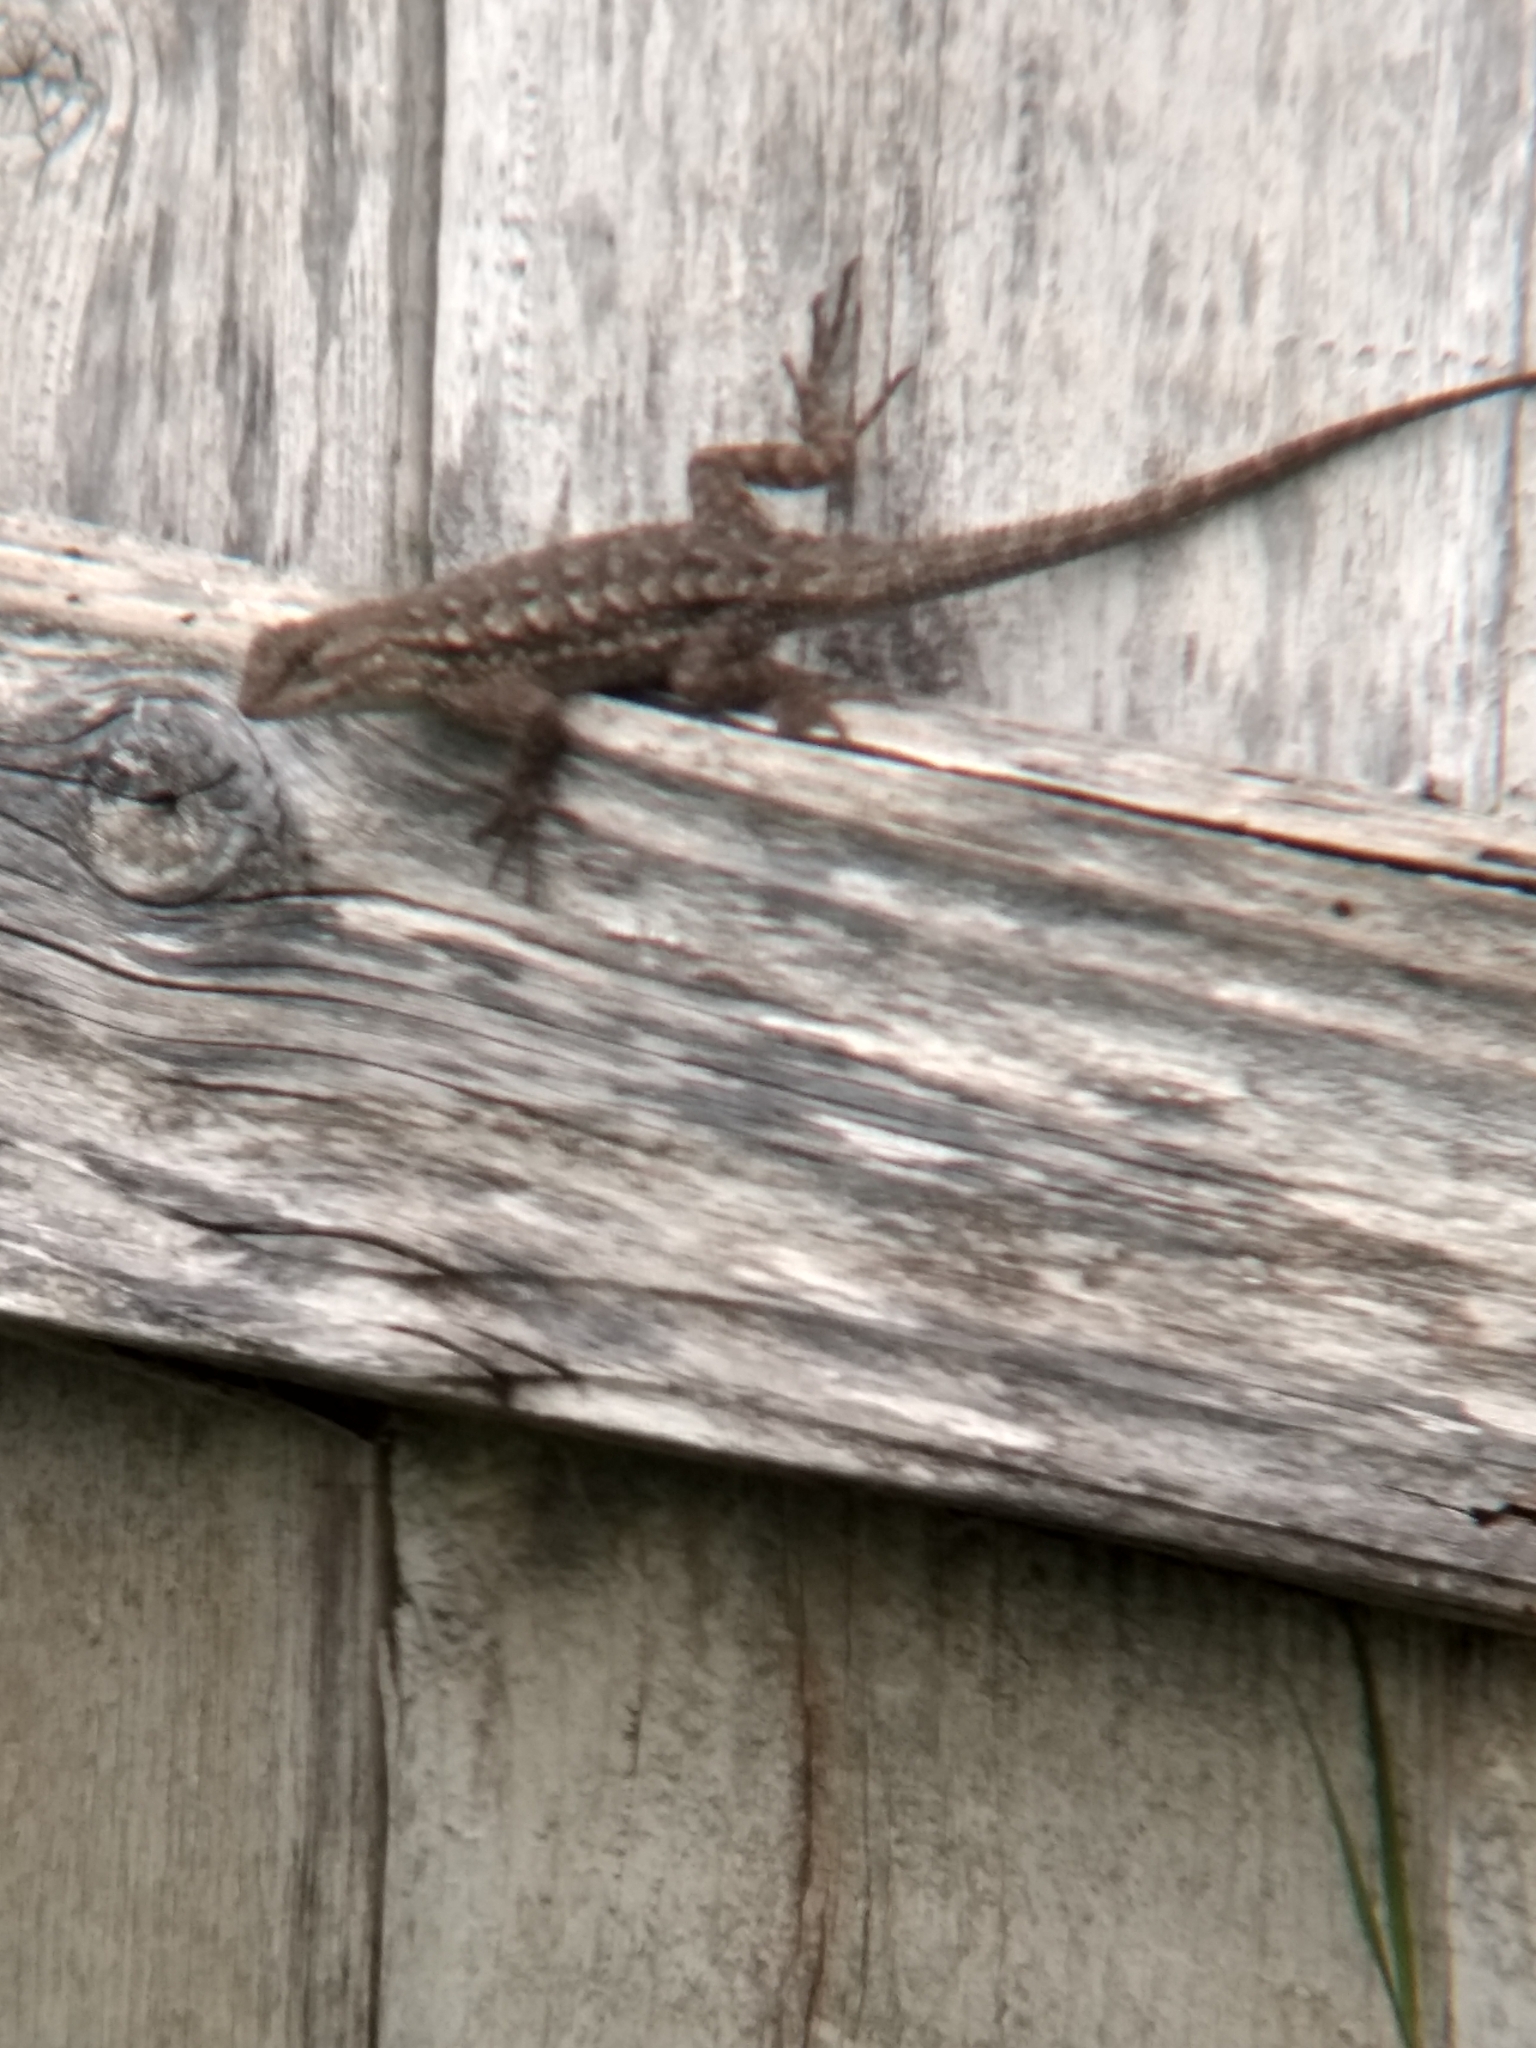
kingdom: Animalia
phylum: Chordata
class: Squamata
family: Phrynosomatidae
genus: Sceloporus
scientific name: Sceloporus occidentalis
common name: Western fence lizard
